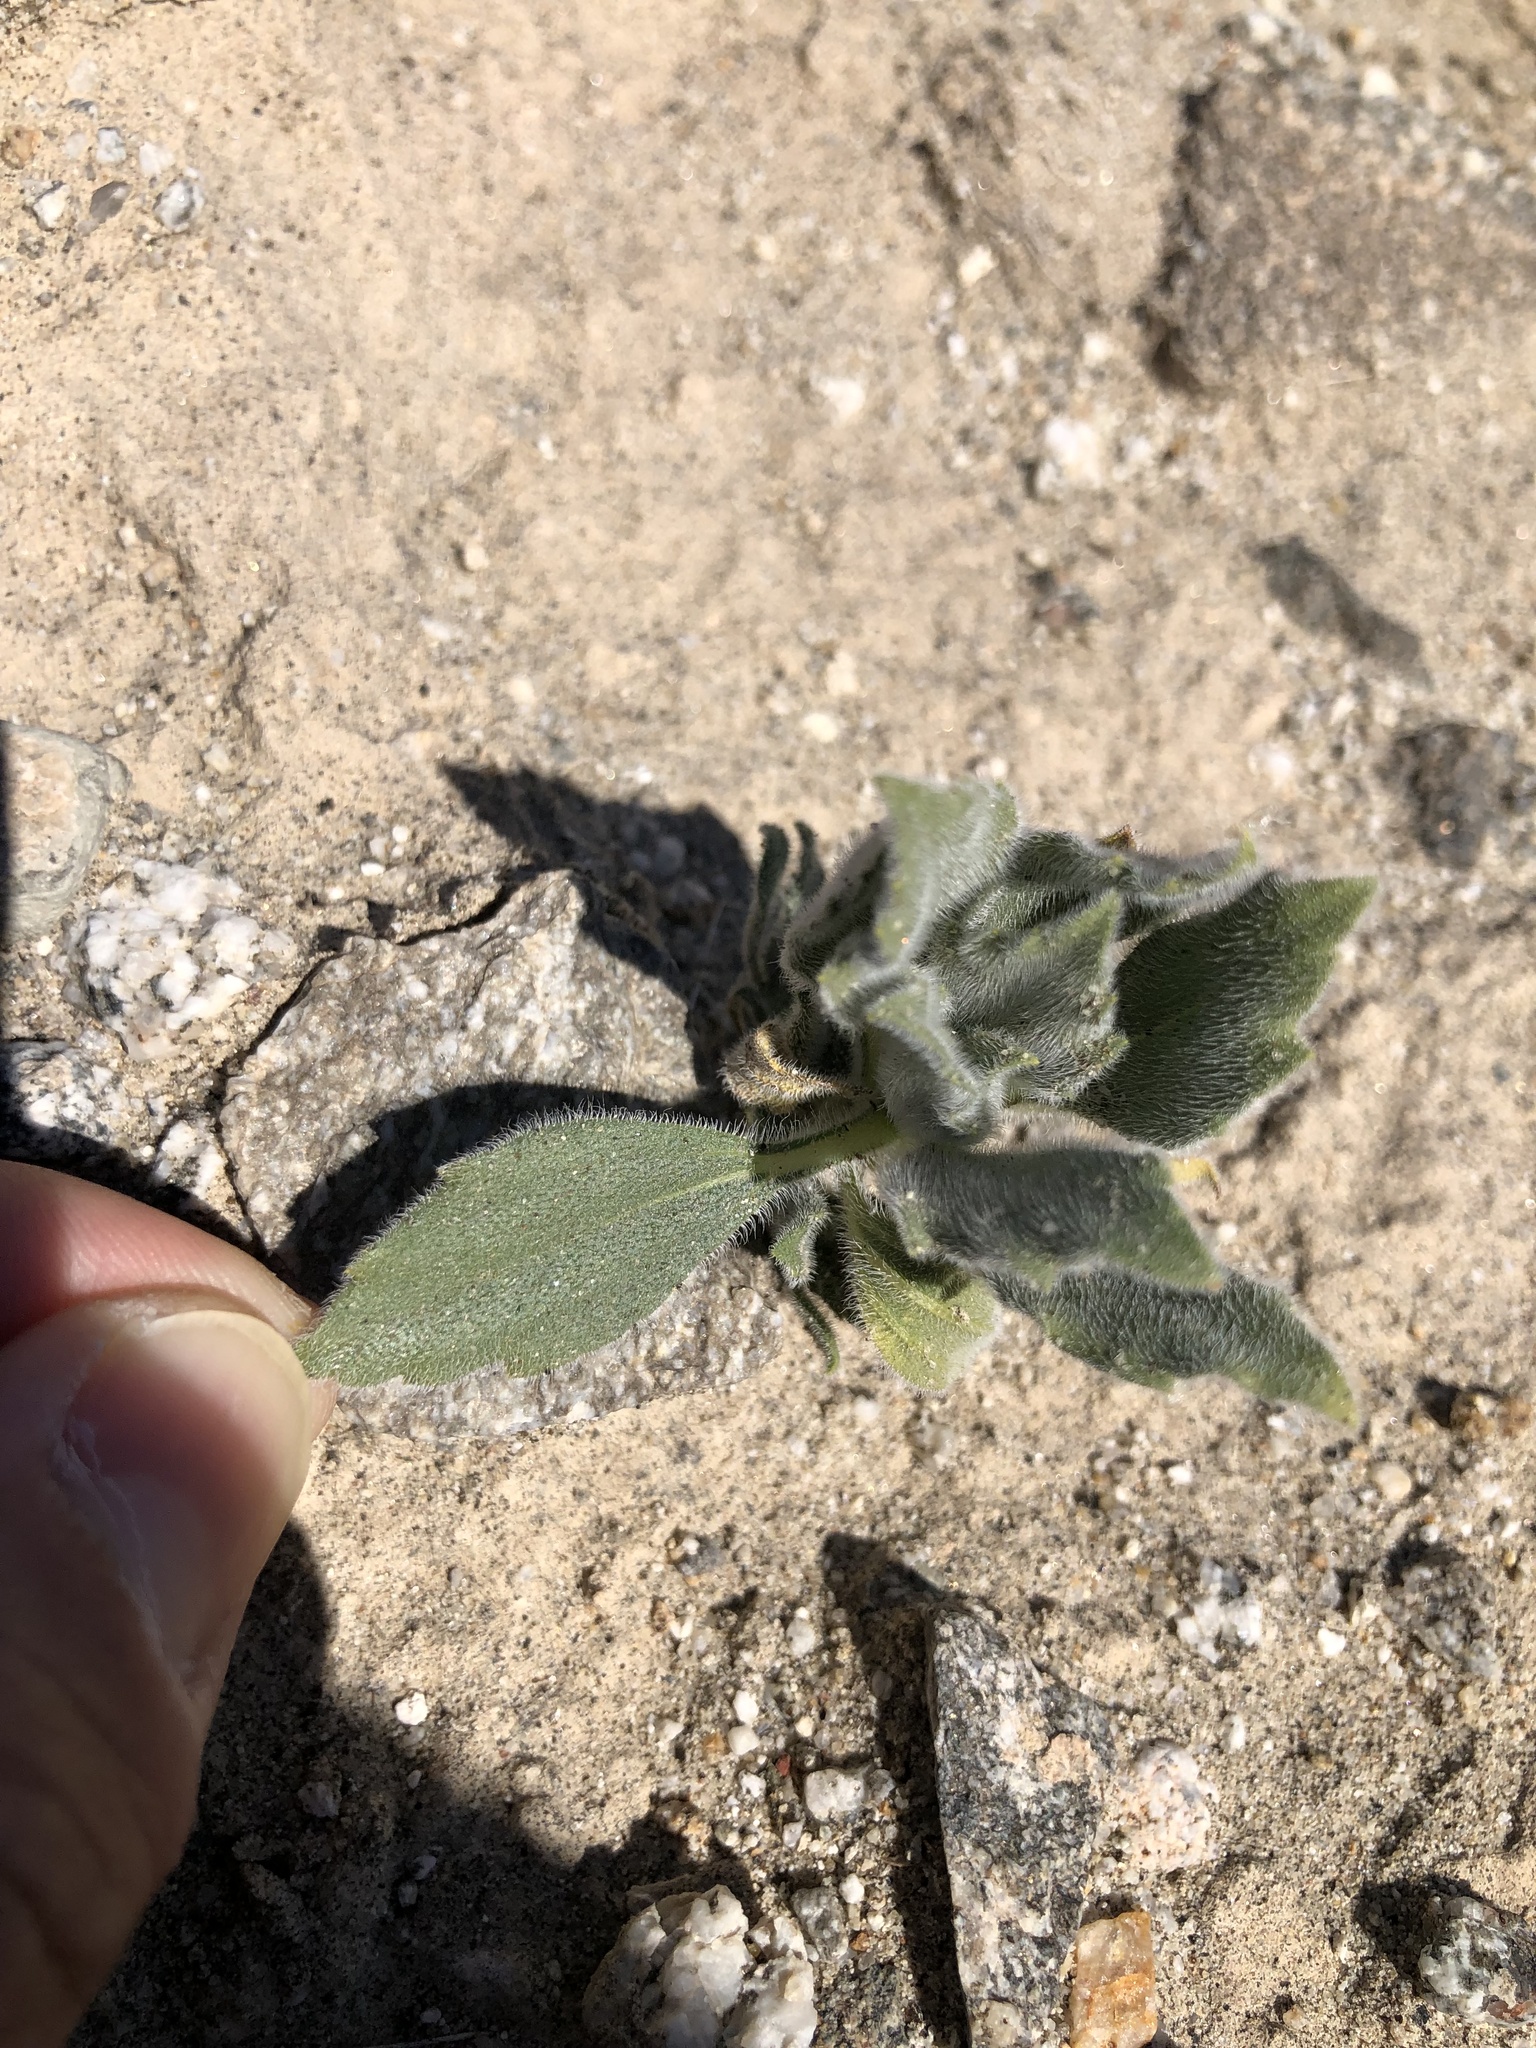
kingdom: Plantae
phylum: Tracheophyta
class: Magnoliopsida
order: Asterales
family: Asteraceae
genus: Geraea
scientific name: Geraea canescens
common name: Desert-gold
